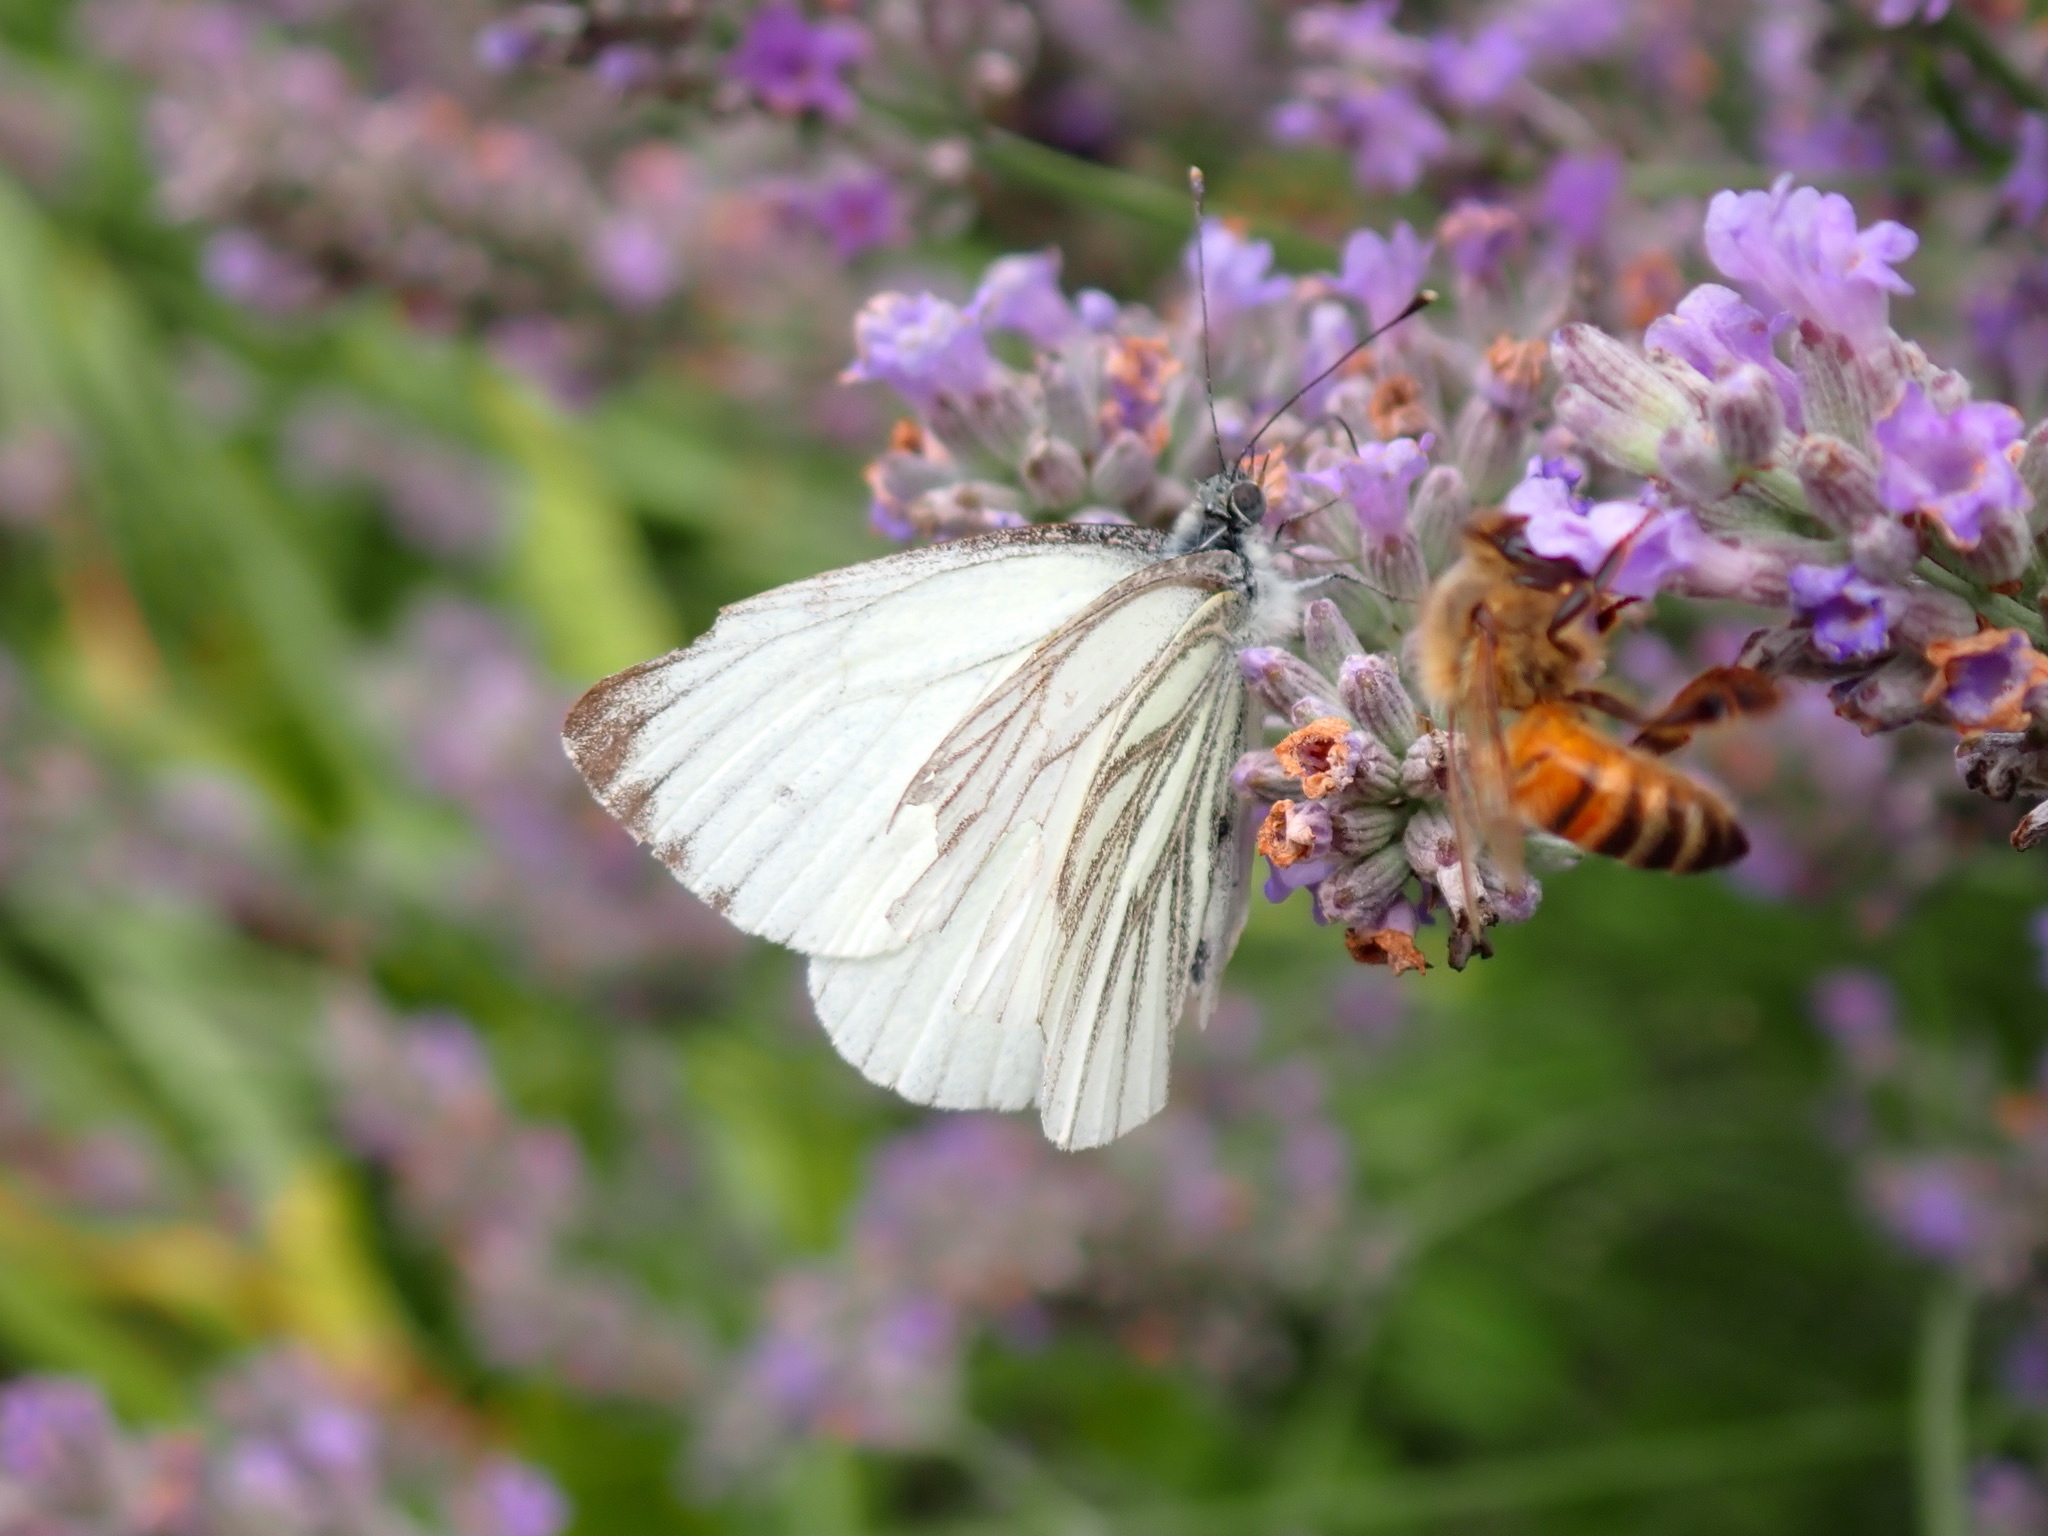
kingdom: Animalia
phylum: Arthropoda
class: Insecta
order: Lepidoptera
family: Pieridae
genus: Pieris
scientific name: Pieris napi
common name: Green-veined white
